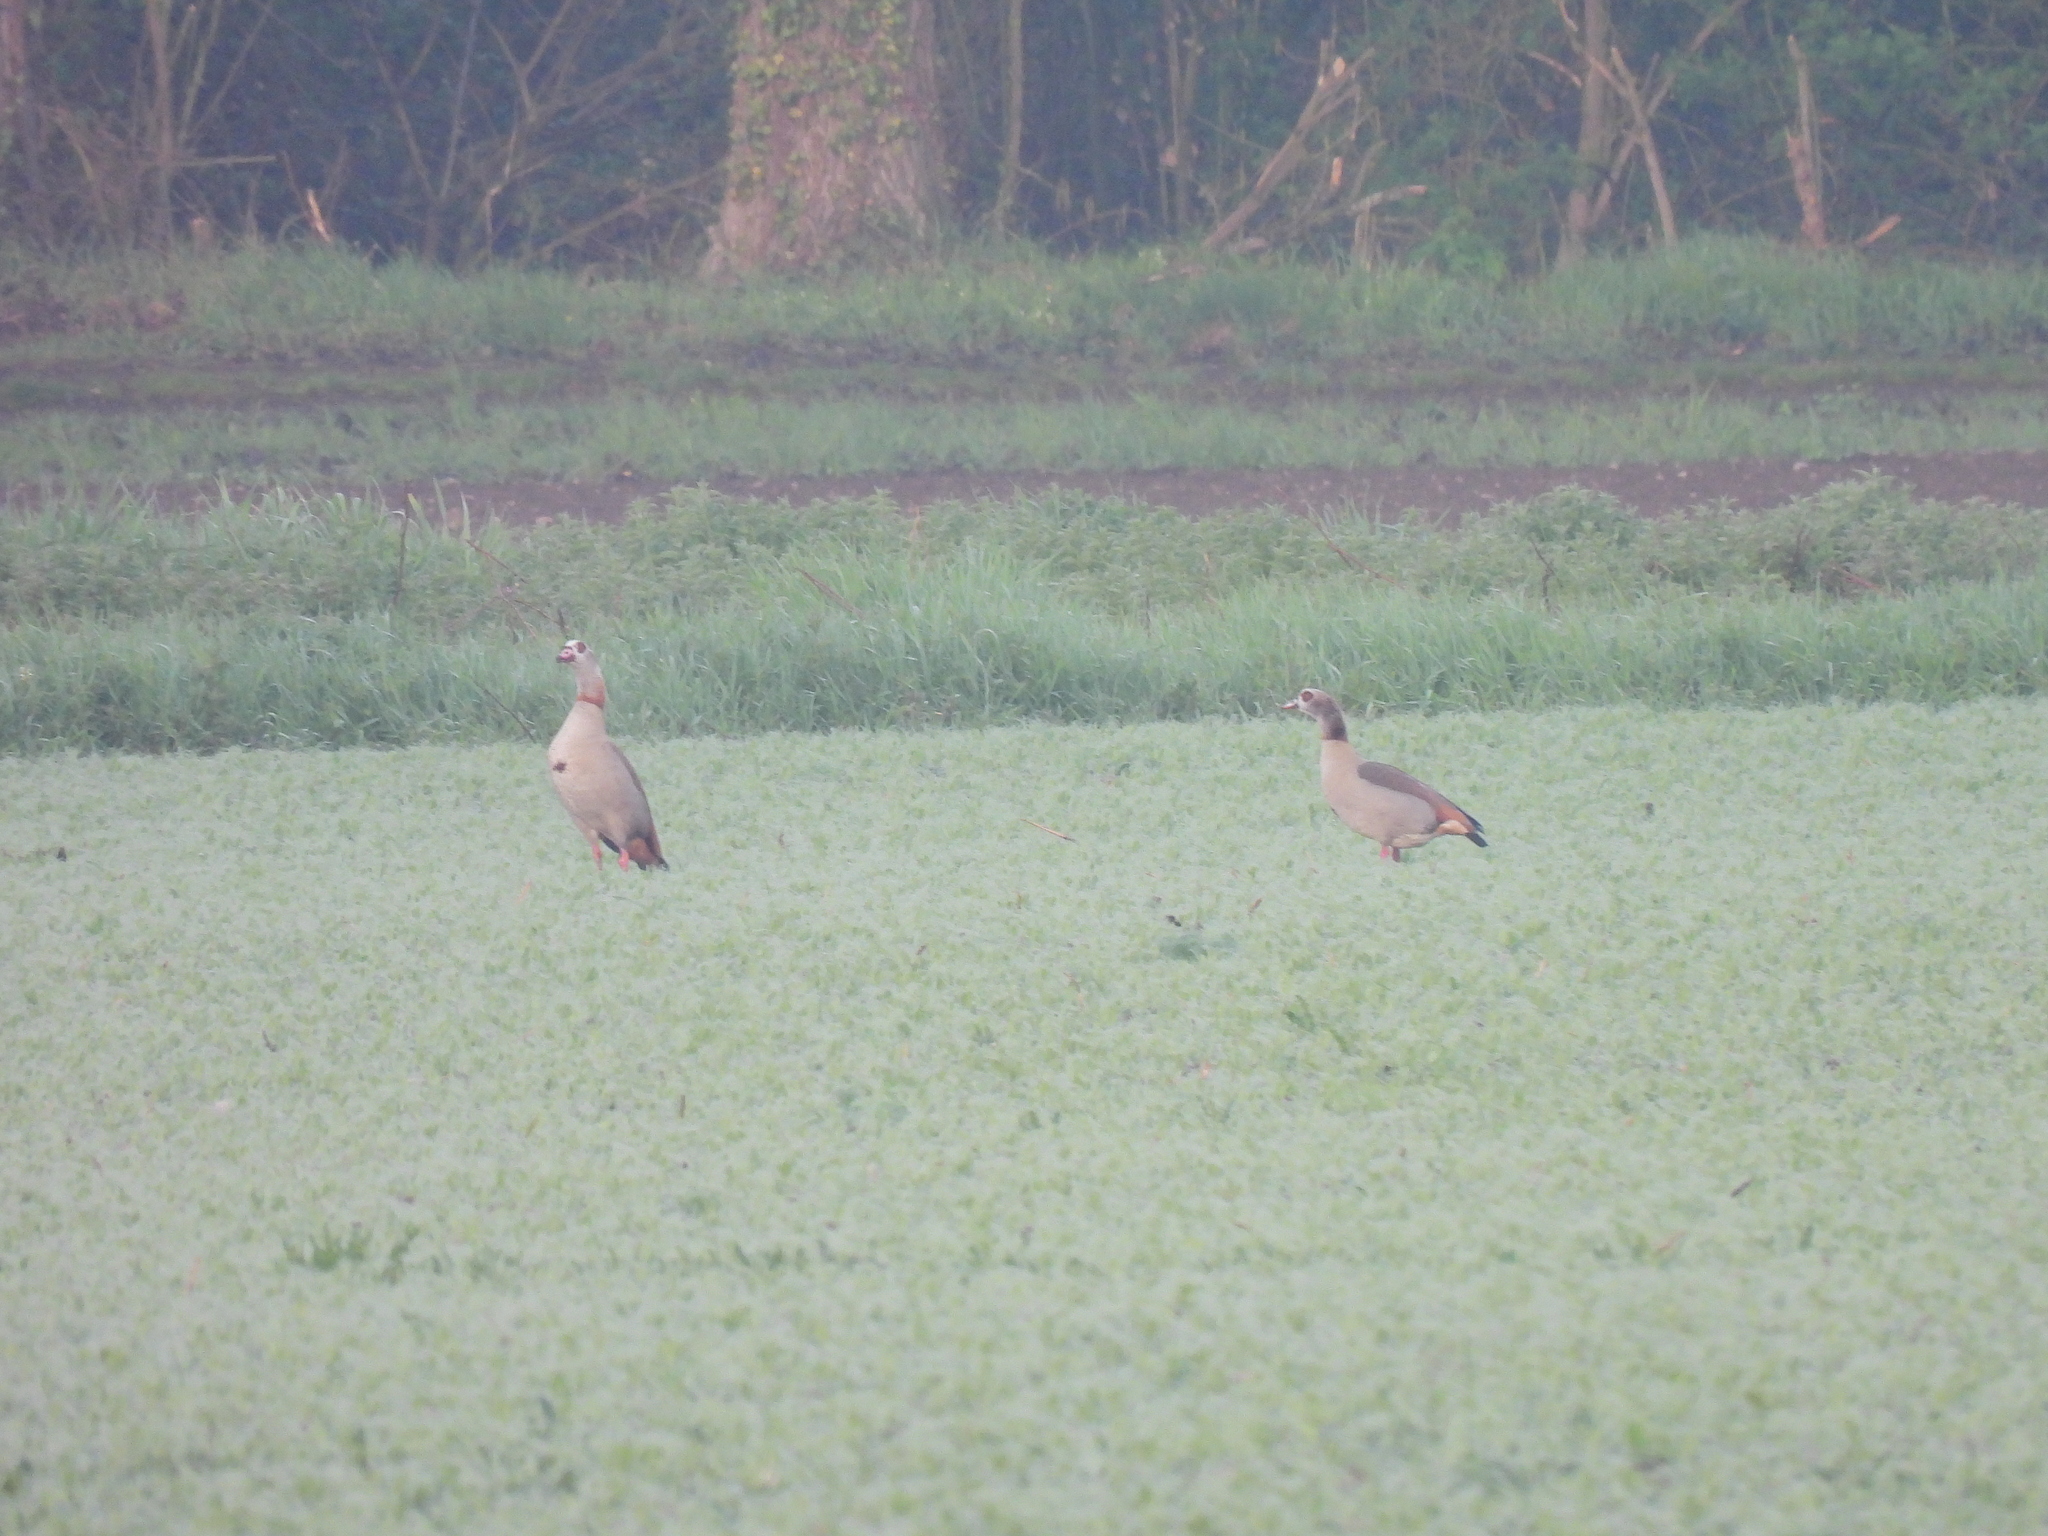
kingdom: Animalia
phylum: Chordata
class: Aves
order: Anseriformes
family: Anatidae
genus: Alopochen
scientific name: Alopochen aegyptiaca
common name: Egyptian goose
